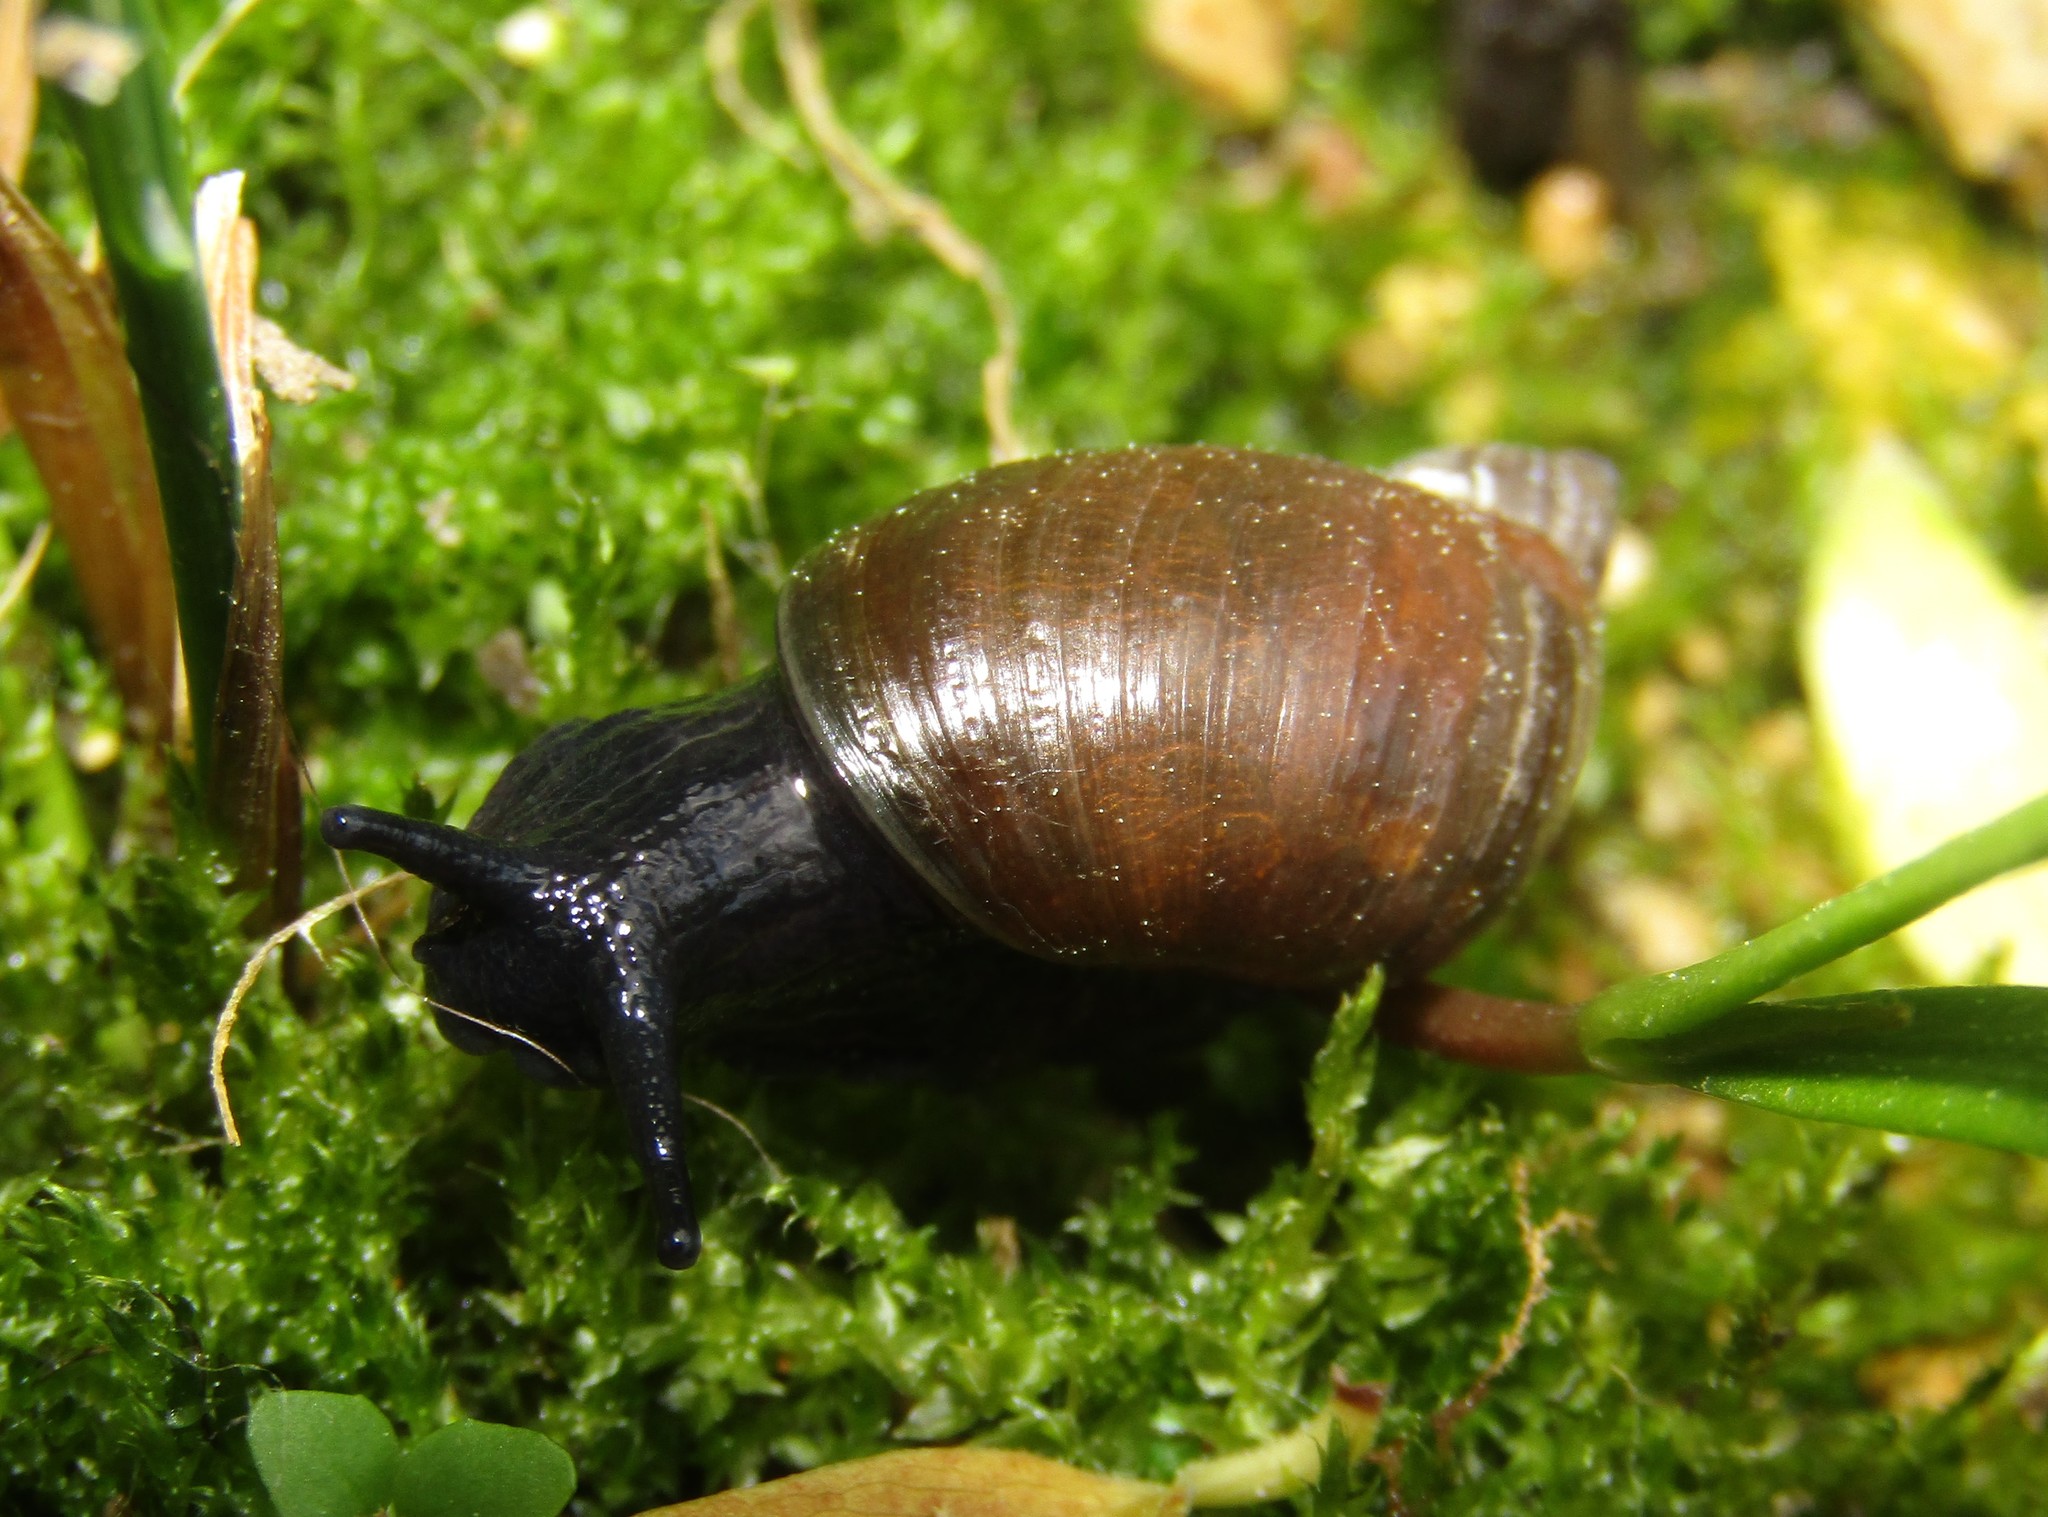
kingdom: Animalia
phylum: Mollusca
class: Gastropoda
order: Stylommatophora
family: Succineidae
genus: Succinea
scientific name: Succinea putris
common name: European ambersnail
